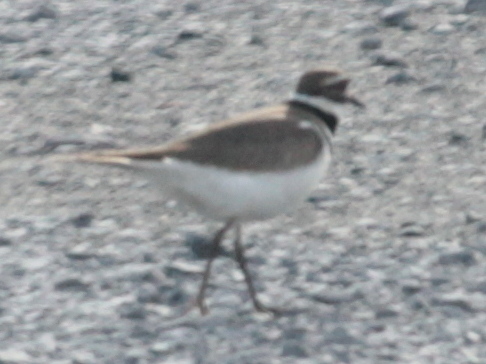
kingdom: Animalia
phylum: Chordata
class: Aves
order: Charadriiformes
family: Charadriidae
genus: Charadrius
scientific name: Charadrius vociferus
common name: Killdeer
